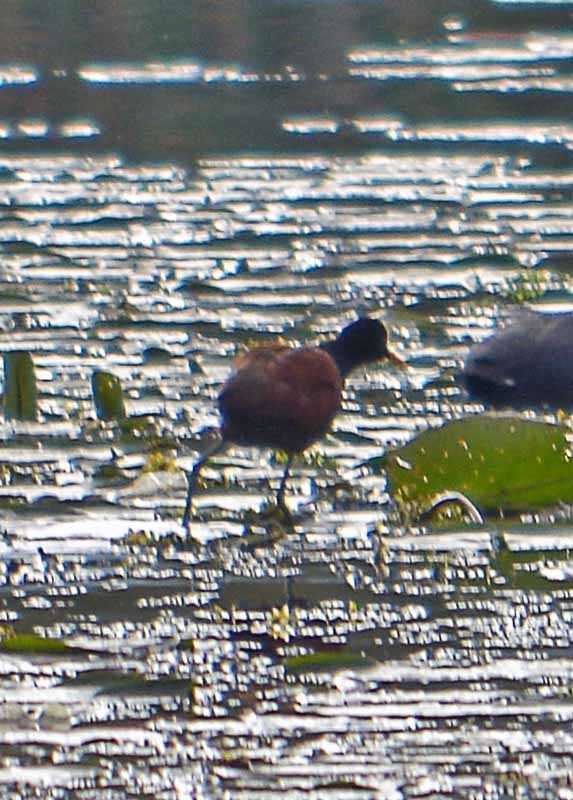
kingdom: Animalia
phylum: Chordata
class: Aves
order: Charadriiformes
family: Jacanidae
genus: Jacana
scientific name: Jacana spinosa
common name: Northern jacana
